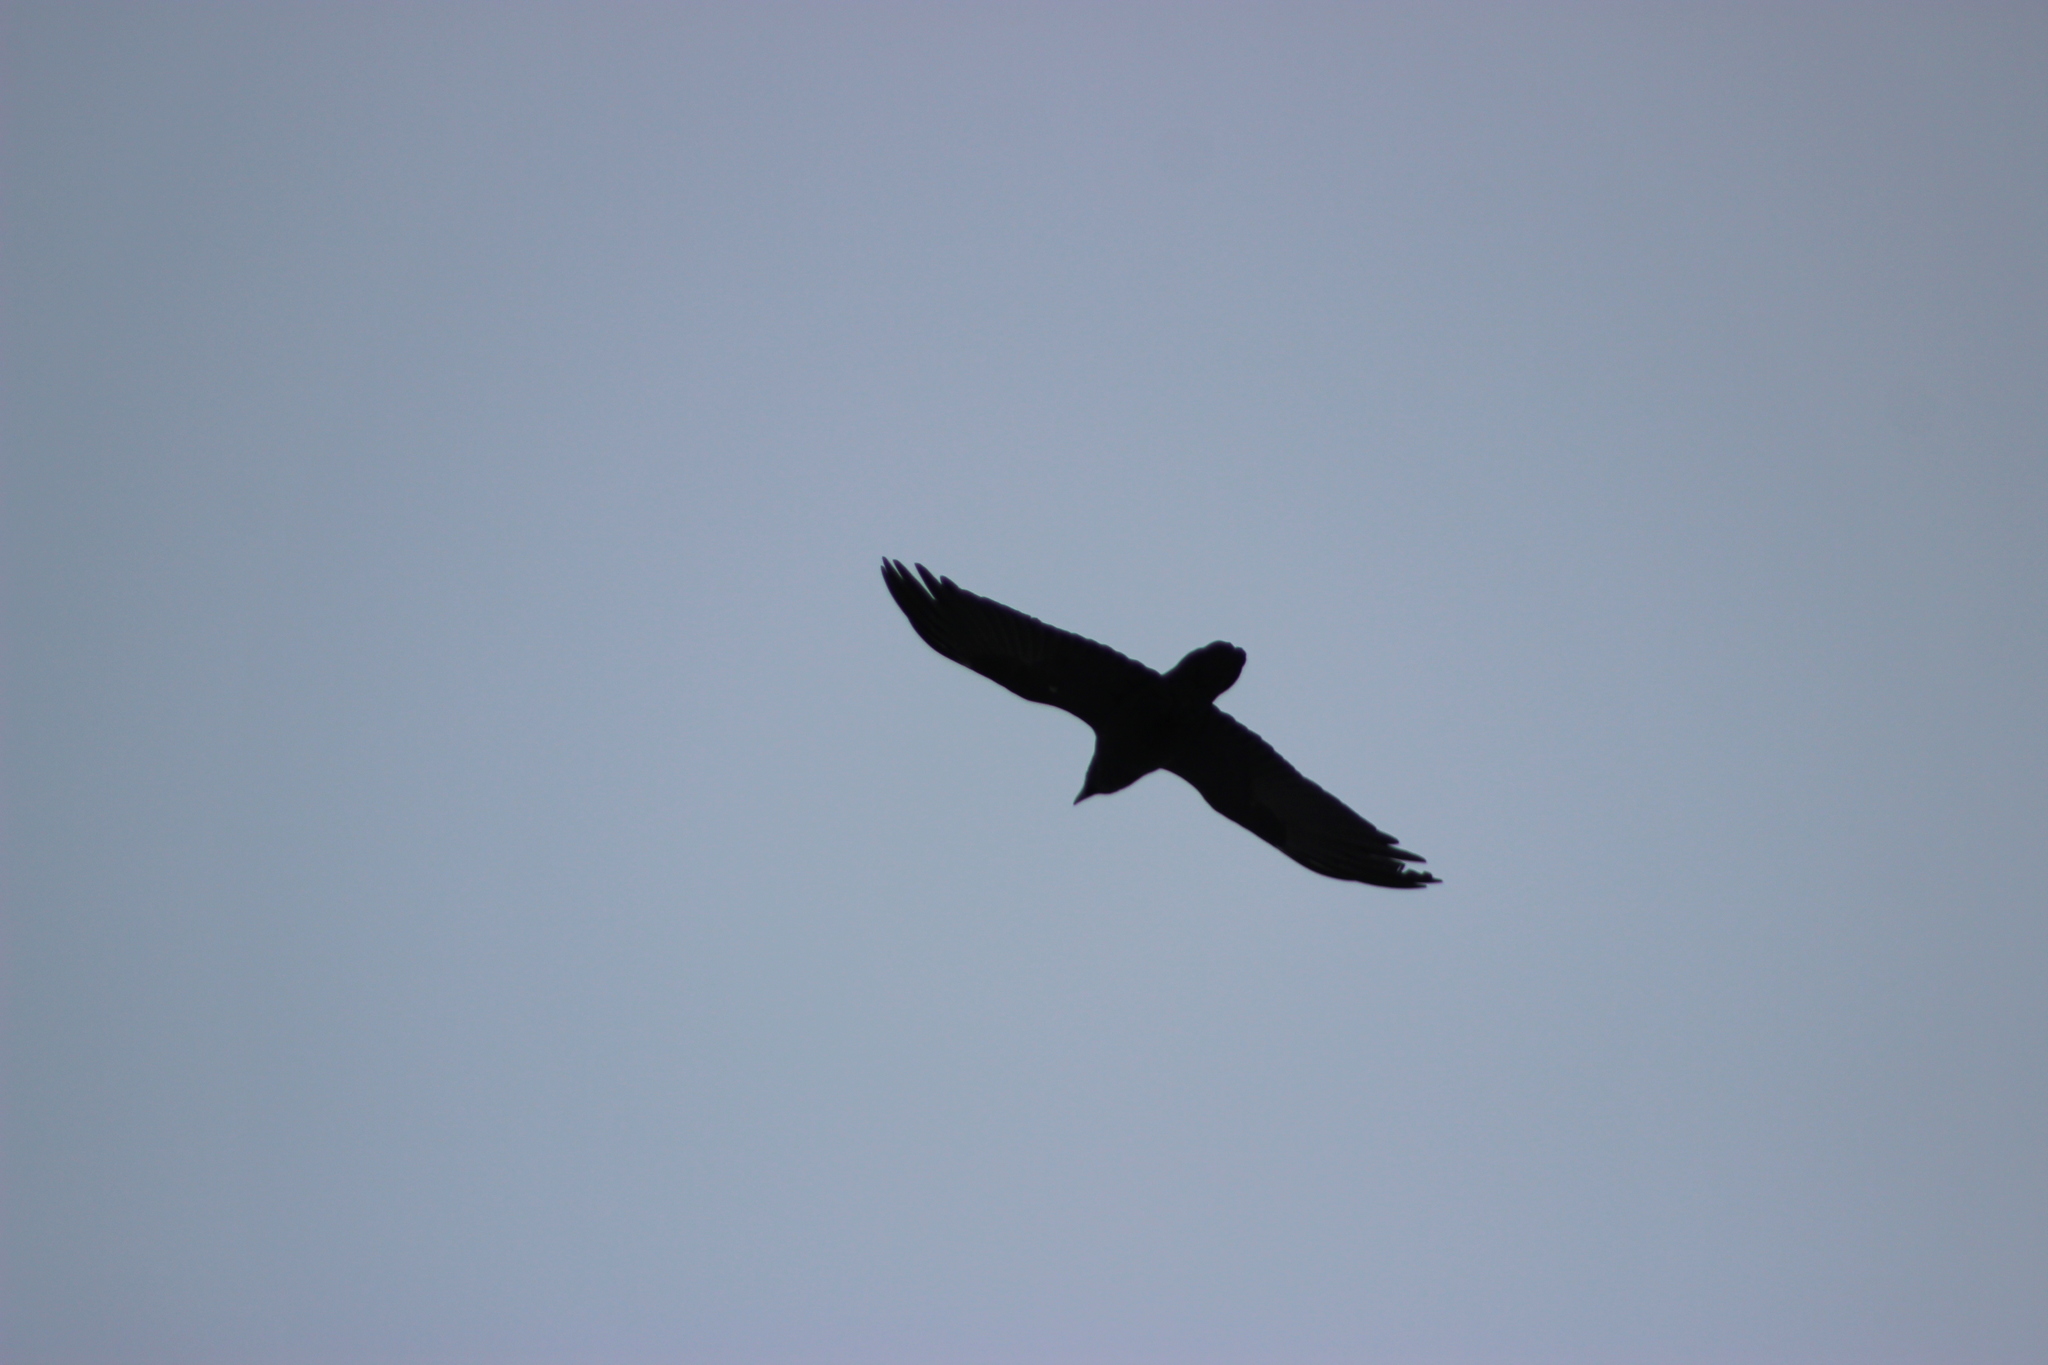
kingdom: Animalia
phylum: Chordata
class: Aves
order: Passeriformes
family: Corvidae
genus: Corvus
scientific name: Corvus corax
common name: Common raven
